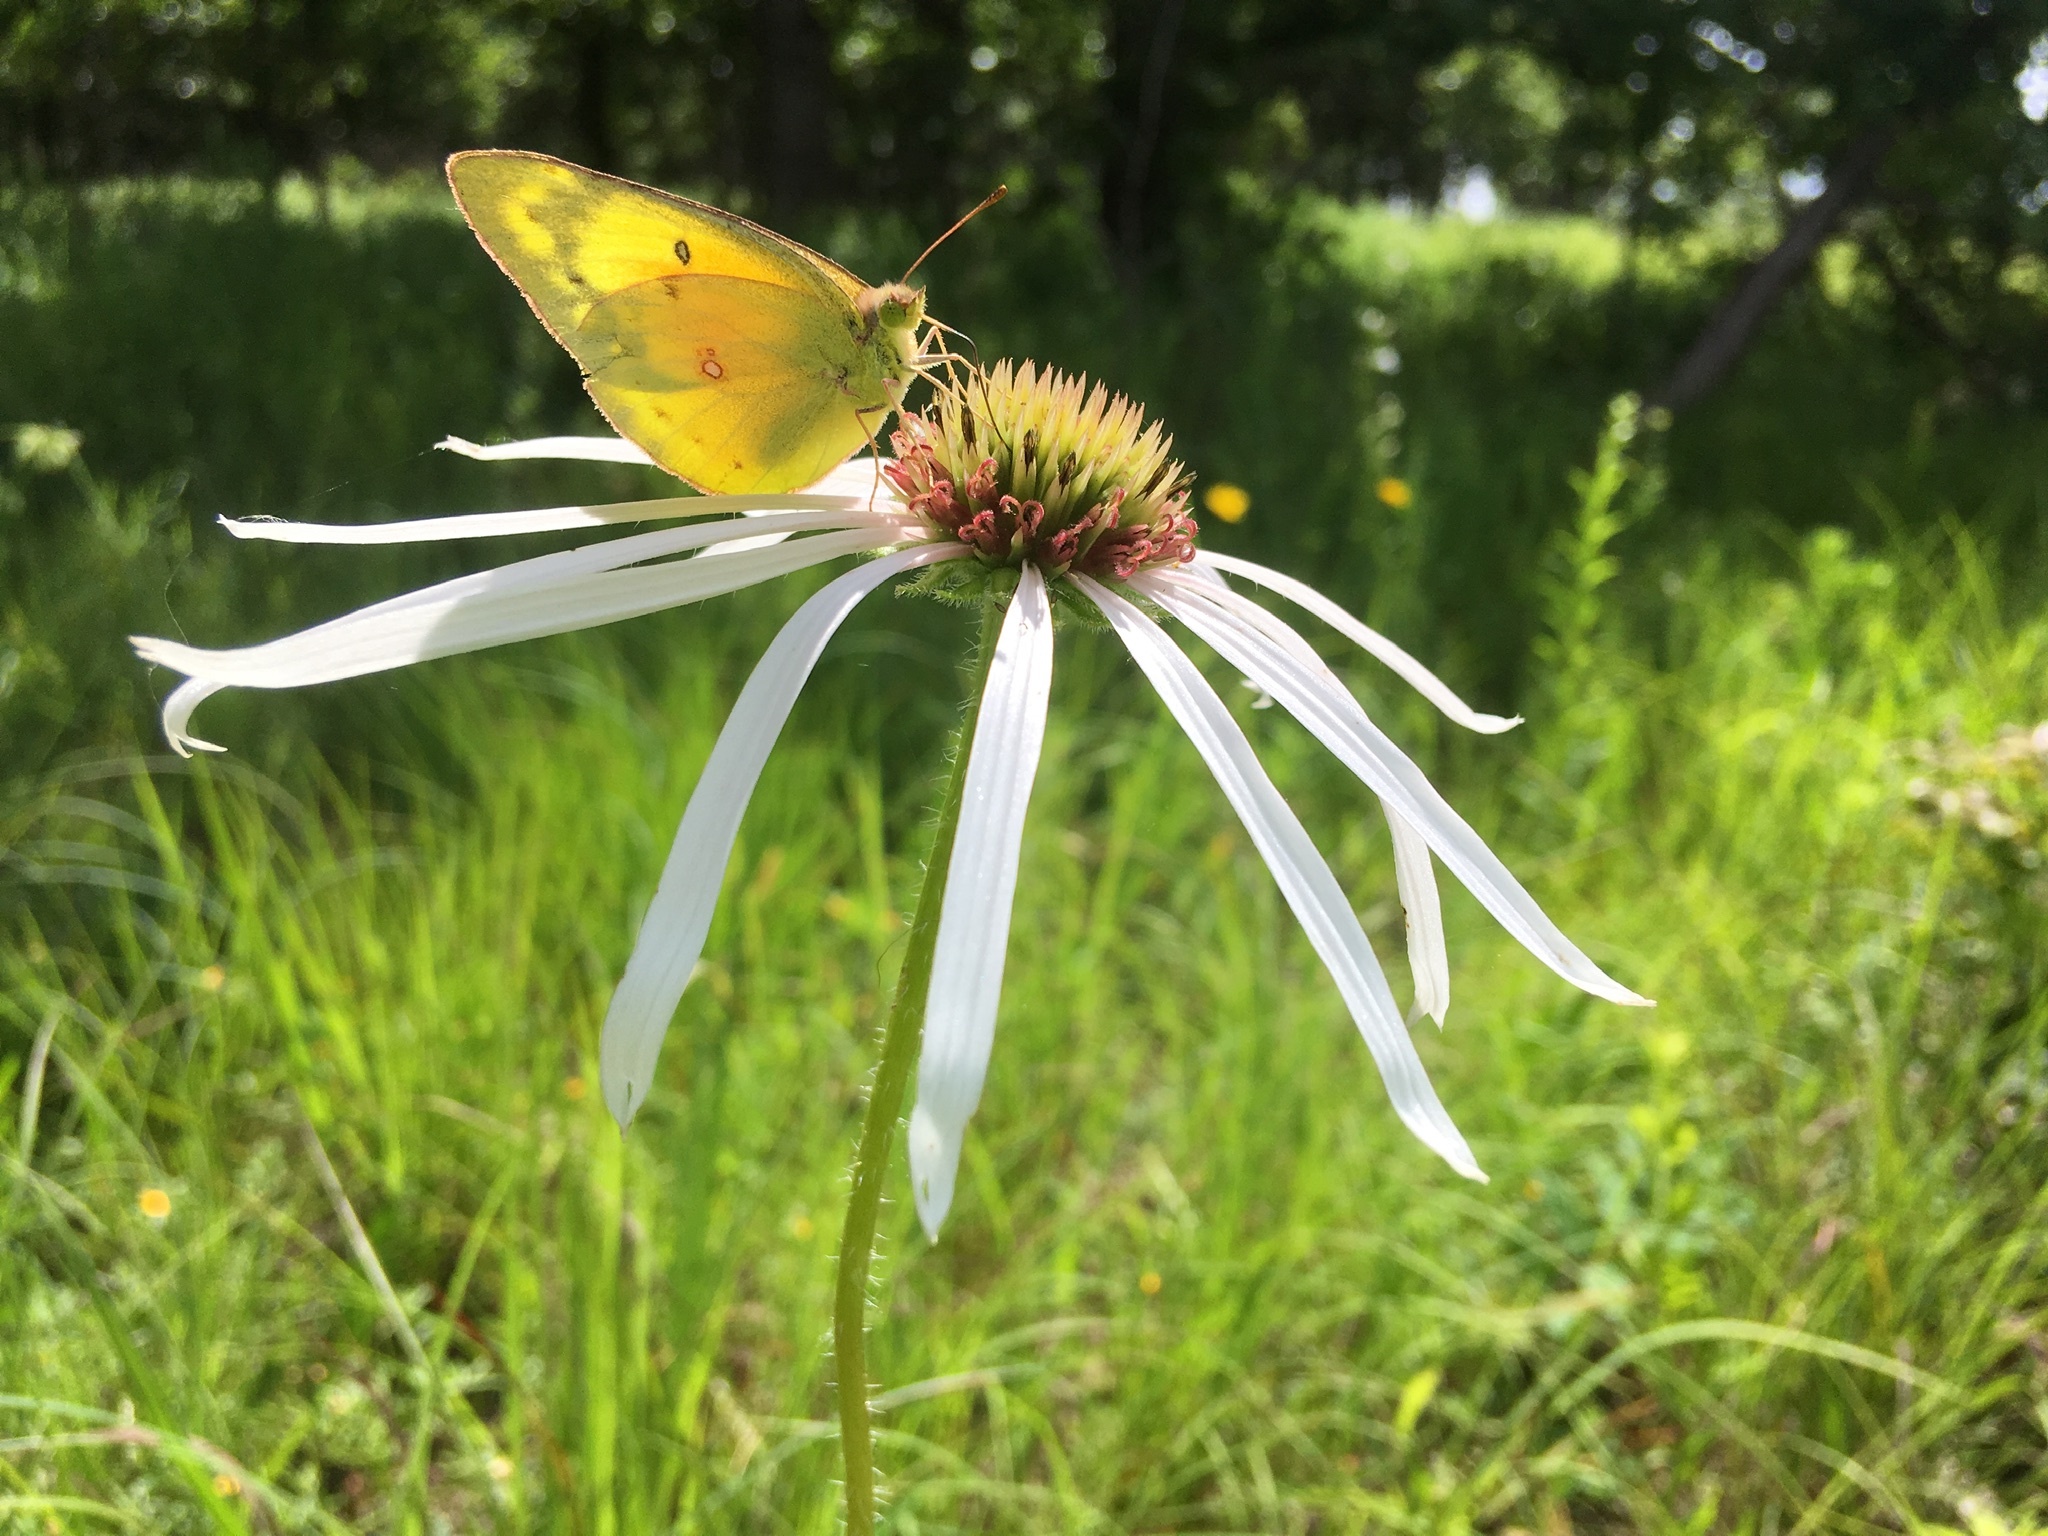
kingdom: Animalia
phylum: Arthropoda
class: Insecta
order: Lepidoptera
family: Pieridae
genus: Colias
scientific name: Colias eurytheme
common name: Alfalfa butterfly
